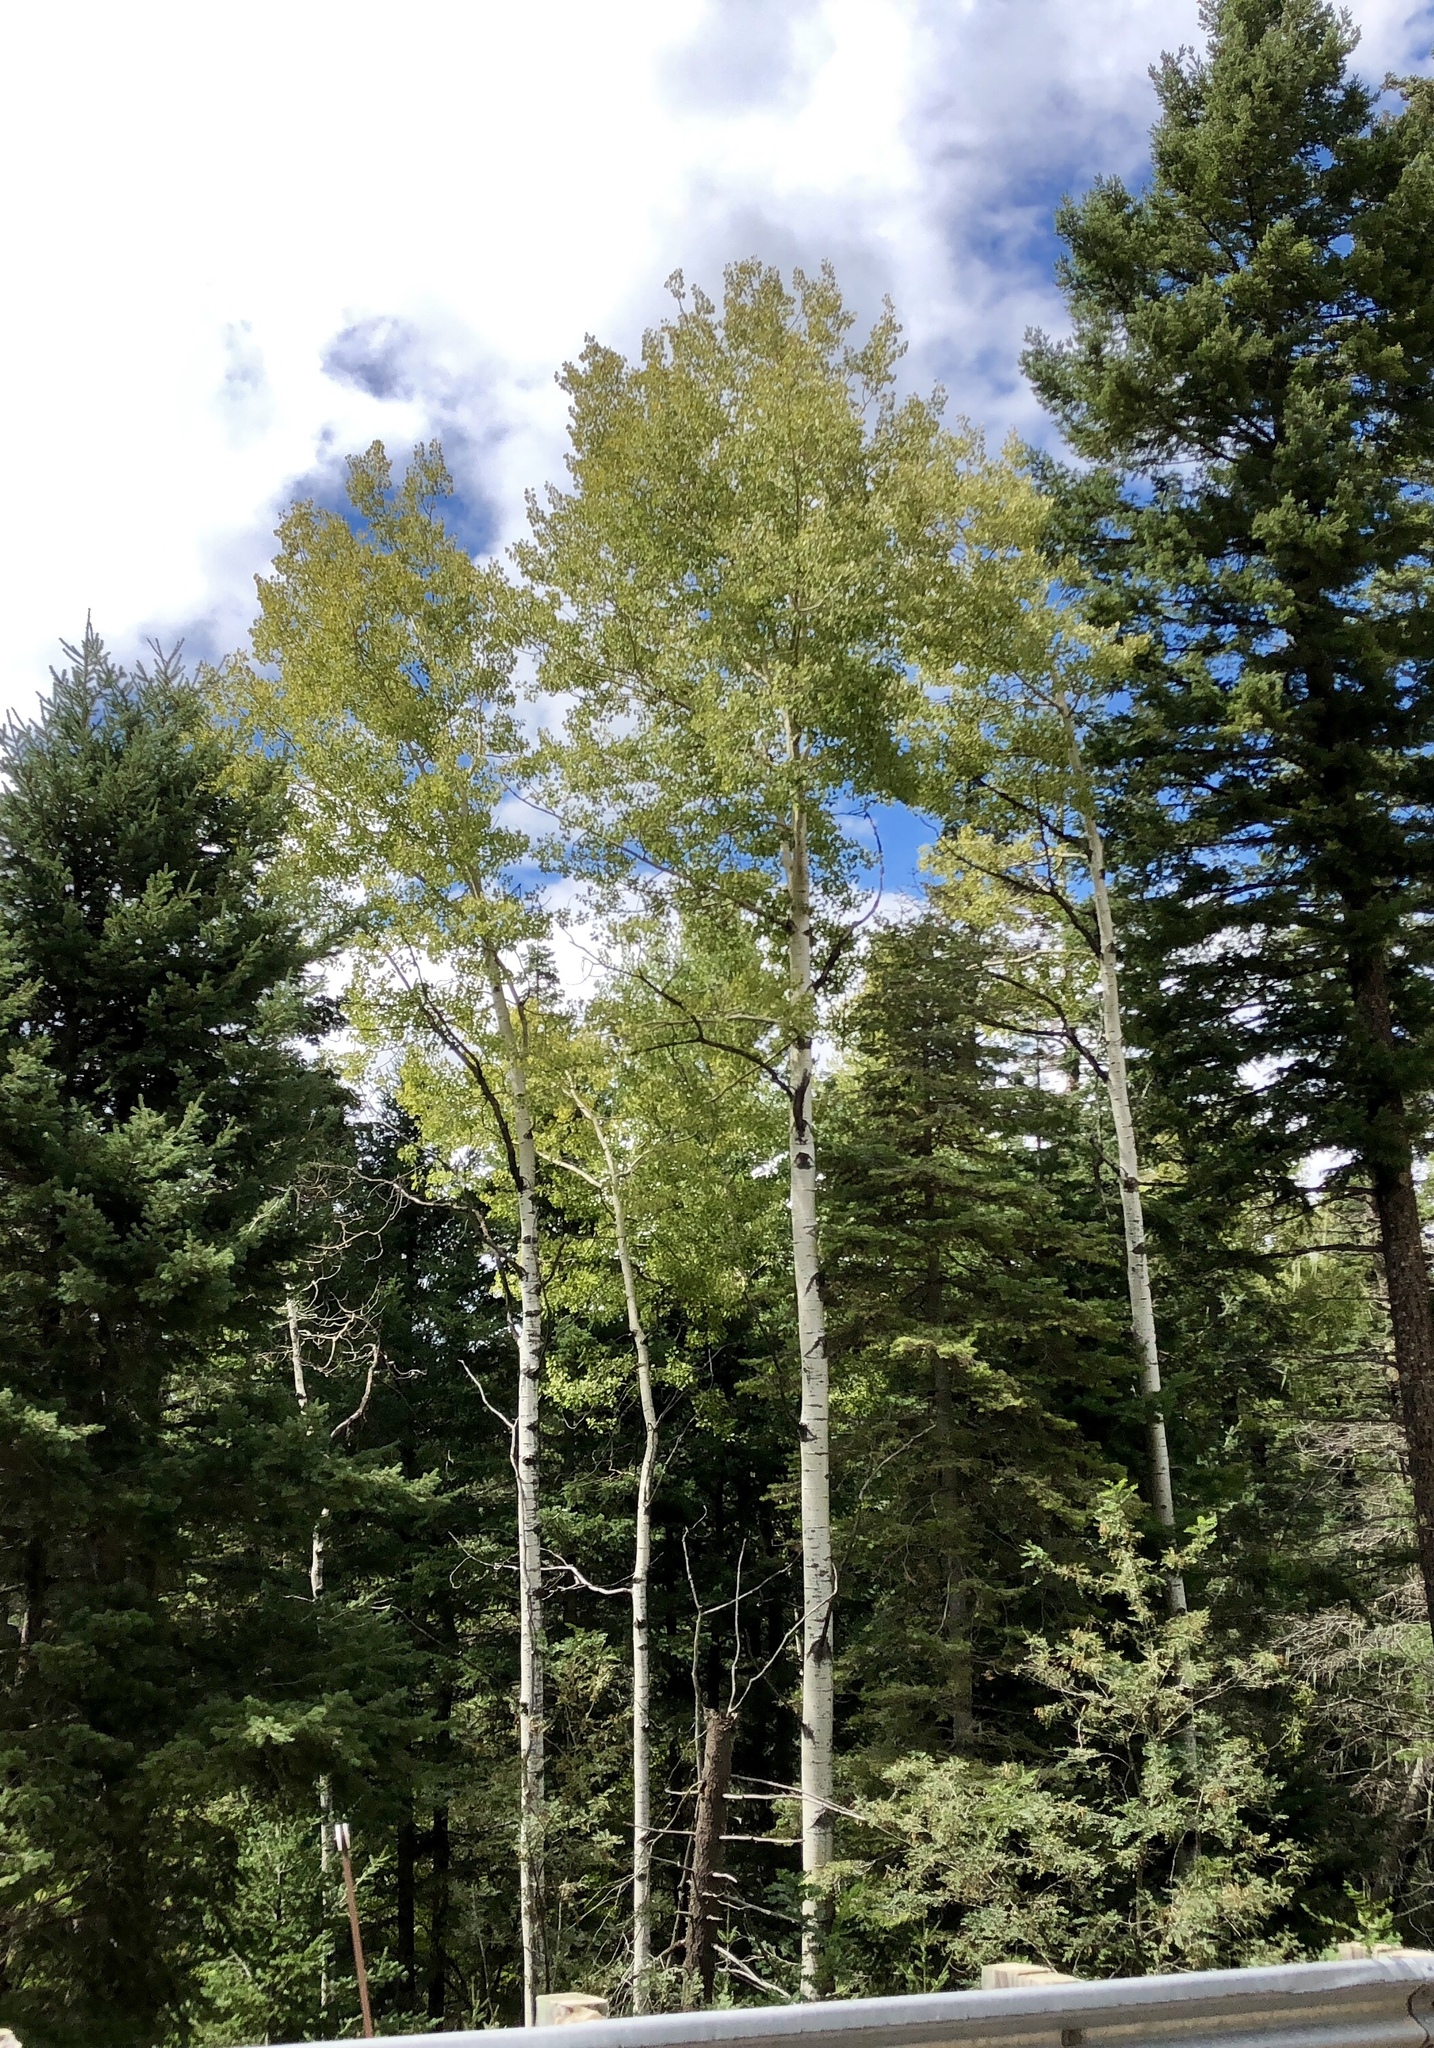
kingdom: Plantae
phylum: Tracheophyta
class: Magnoliopsida
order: Malpighiales
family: Salicaceae
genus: Populus
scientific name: Populus tremuloides
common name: Quaking aspen
